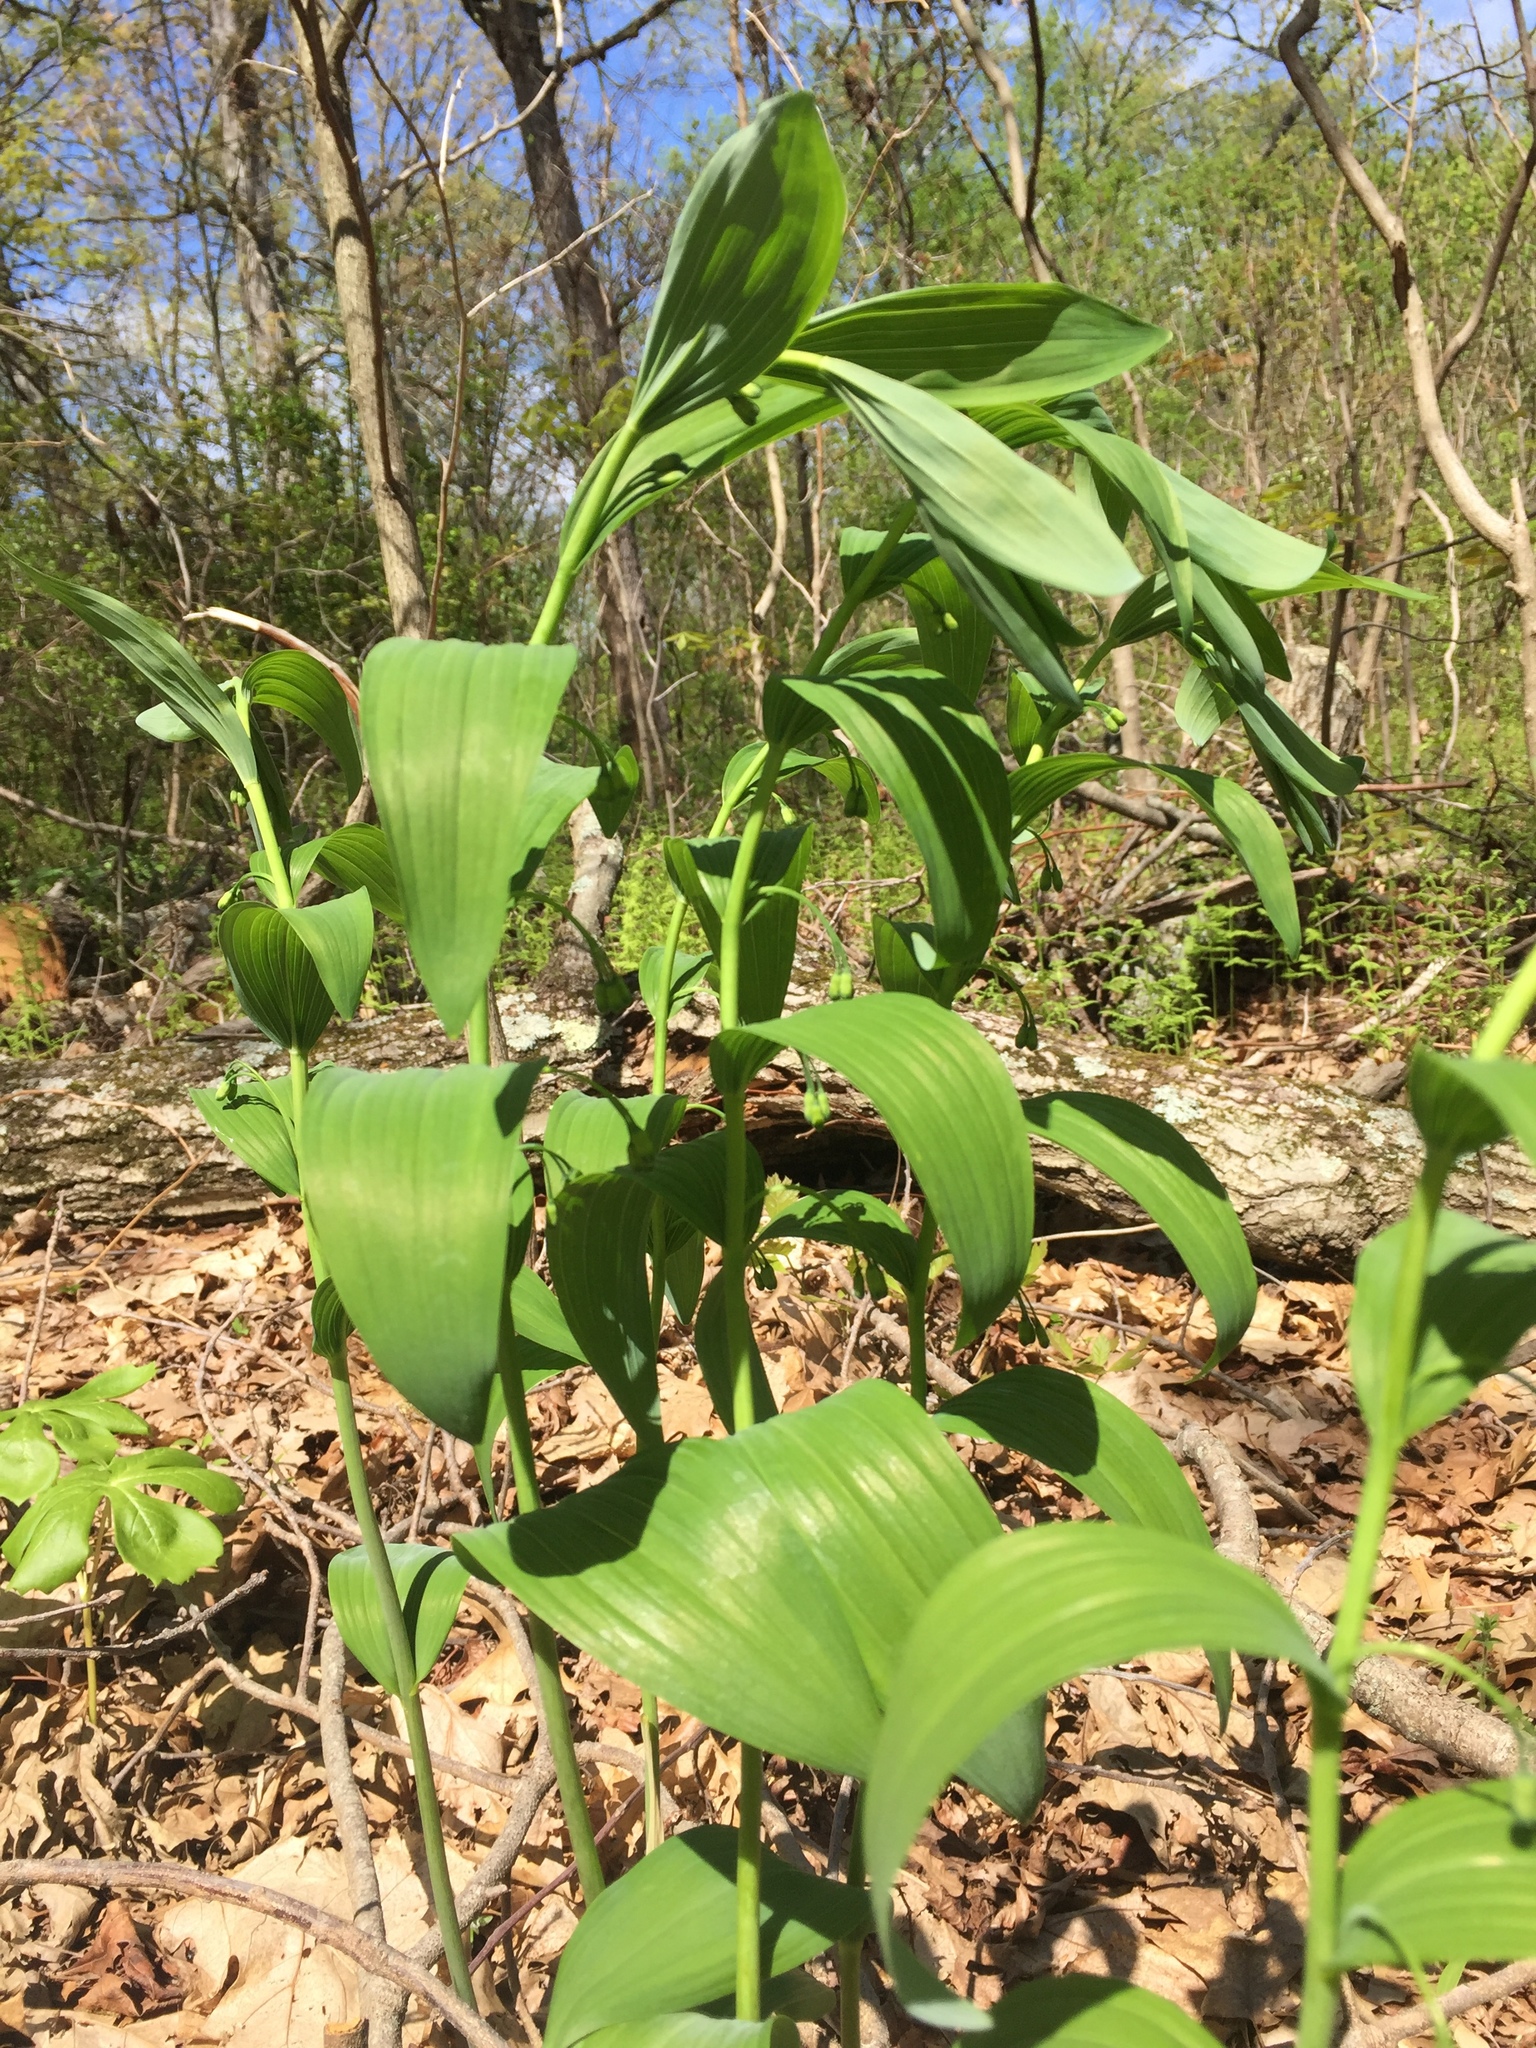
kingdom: Plantae
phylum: Tracheophyta
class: Liliopsida
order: Asparagales
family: Asparagaceae
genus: Polygonatum
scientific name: Polygonatum biflorum
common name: American solomon's-seal
